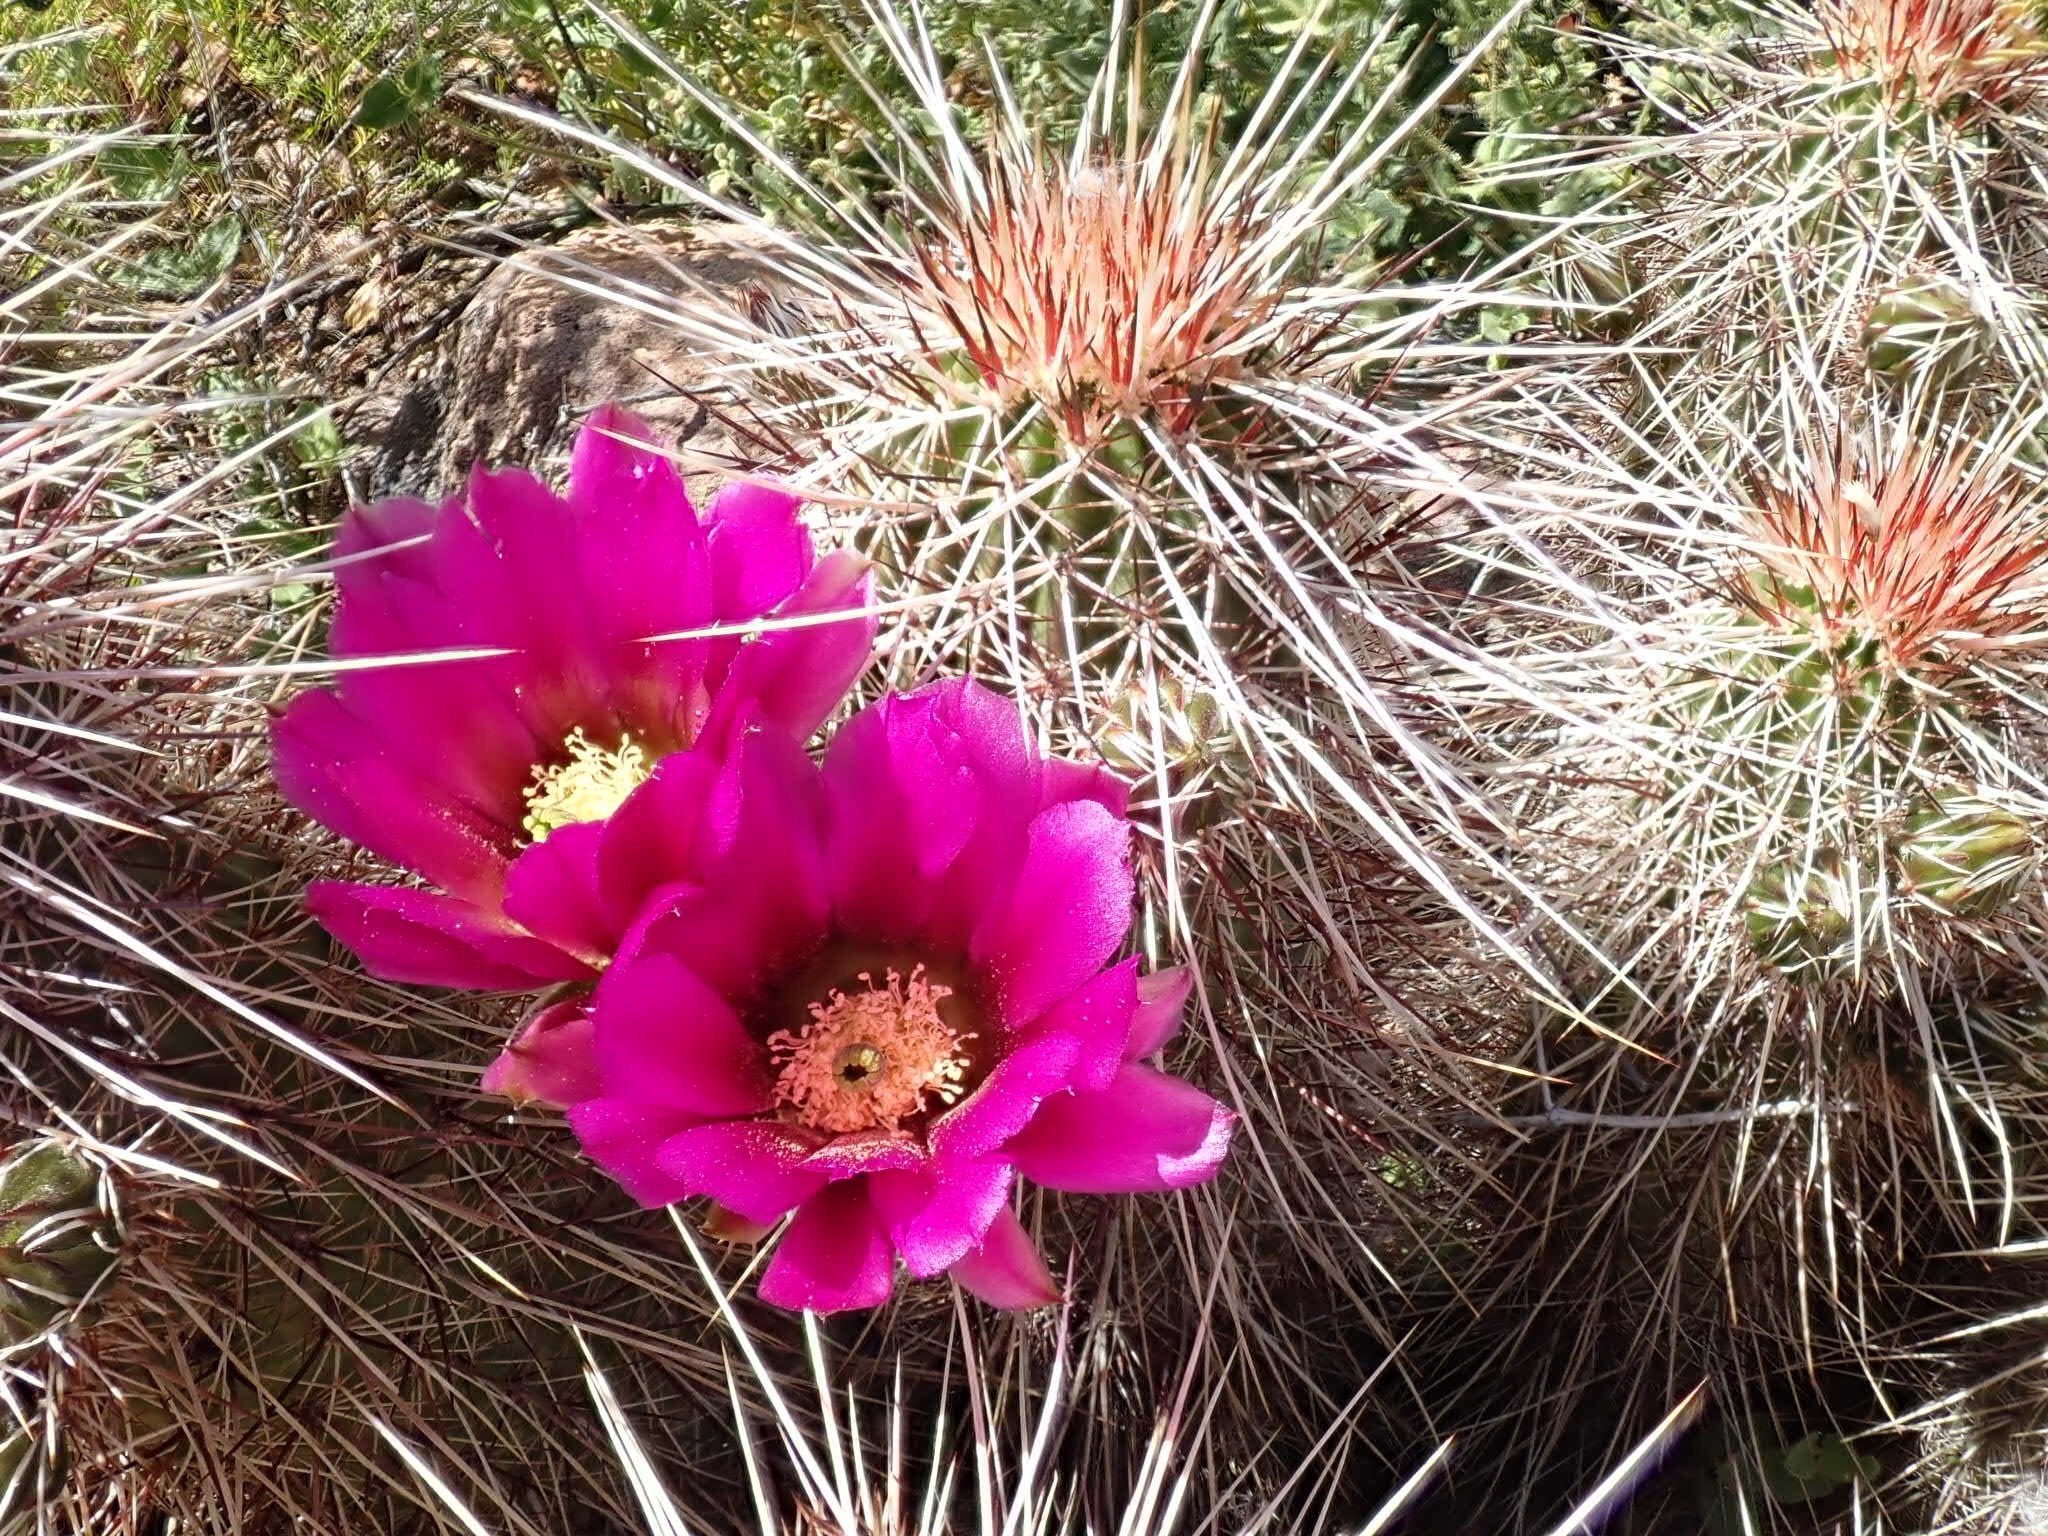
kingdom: Plantae
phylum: Tracheophyta
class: Magnoliopsida
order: Caryophyllales
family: Cactaceae
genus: Echinocereus
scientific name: Echinocereus bonkerae
